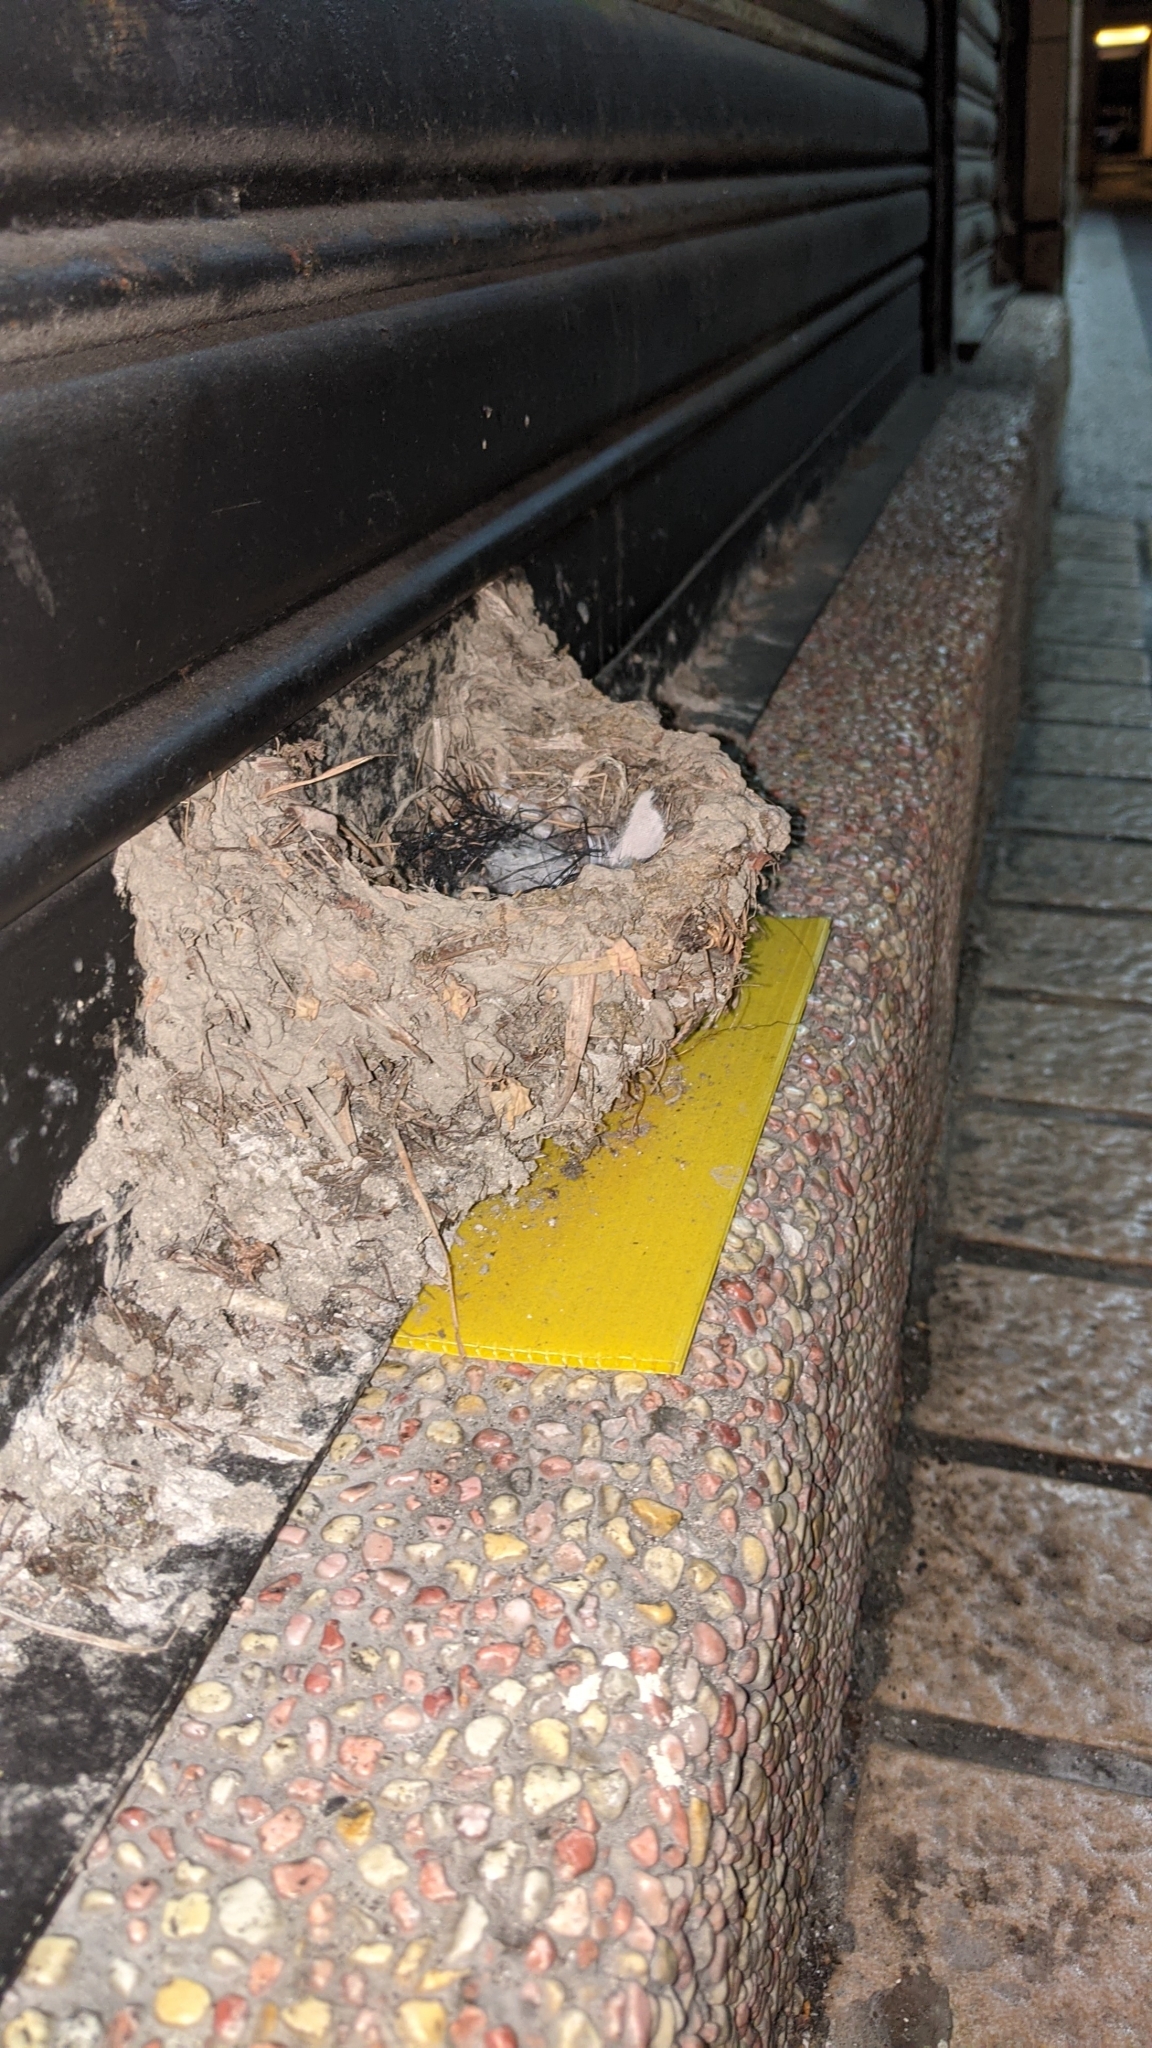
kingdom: Animalia
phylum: Chordata
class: Aves
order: Passeriformes
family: Hirundinidae
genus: Hirundo
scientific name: Hirundo rustica
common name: Barn swallow
